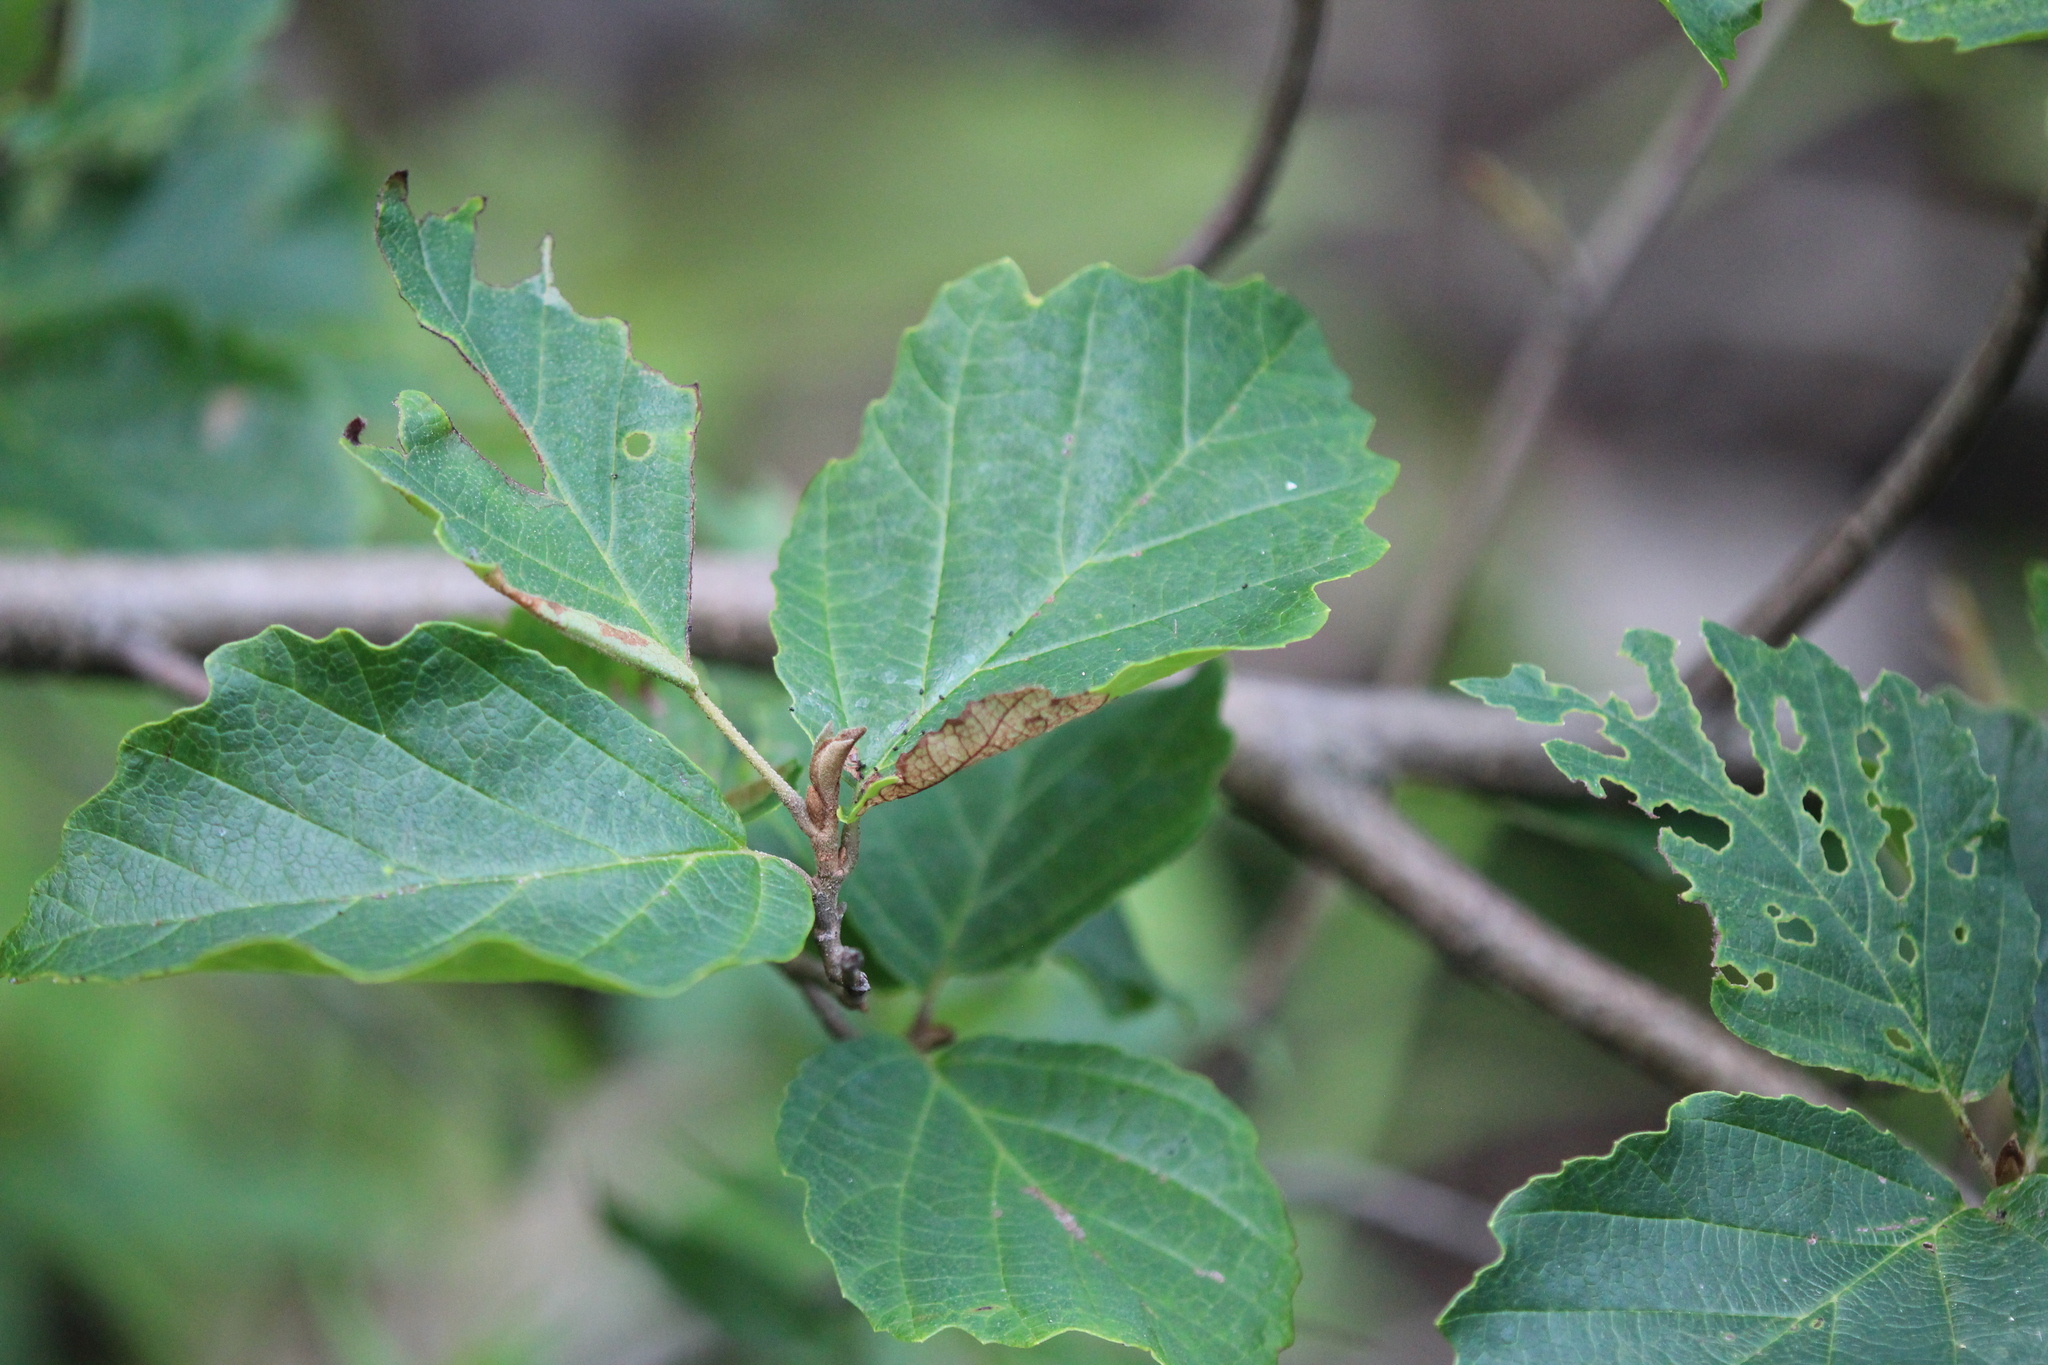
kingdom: Plantae
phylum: Tracheophyta
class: Magnoliopsida
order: Saxifragales
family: Hamamelidaceae
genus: Hamamelis
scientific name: Hamamelis virginiana
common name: Witch-hazel
